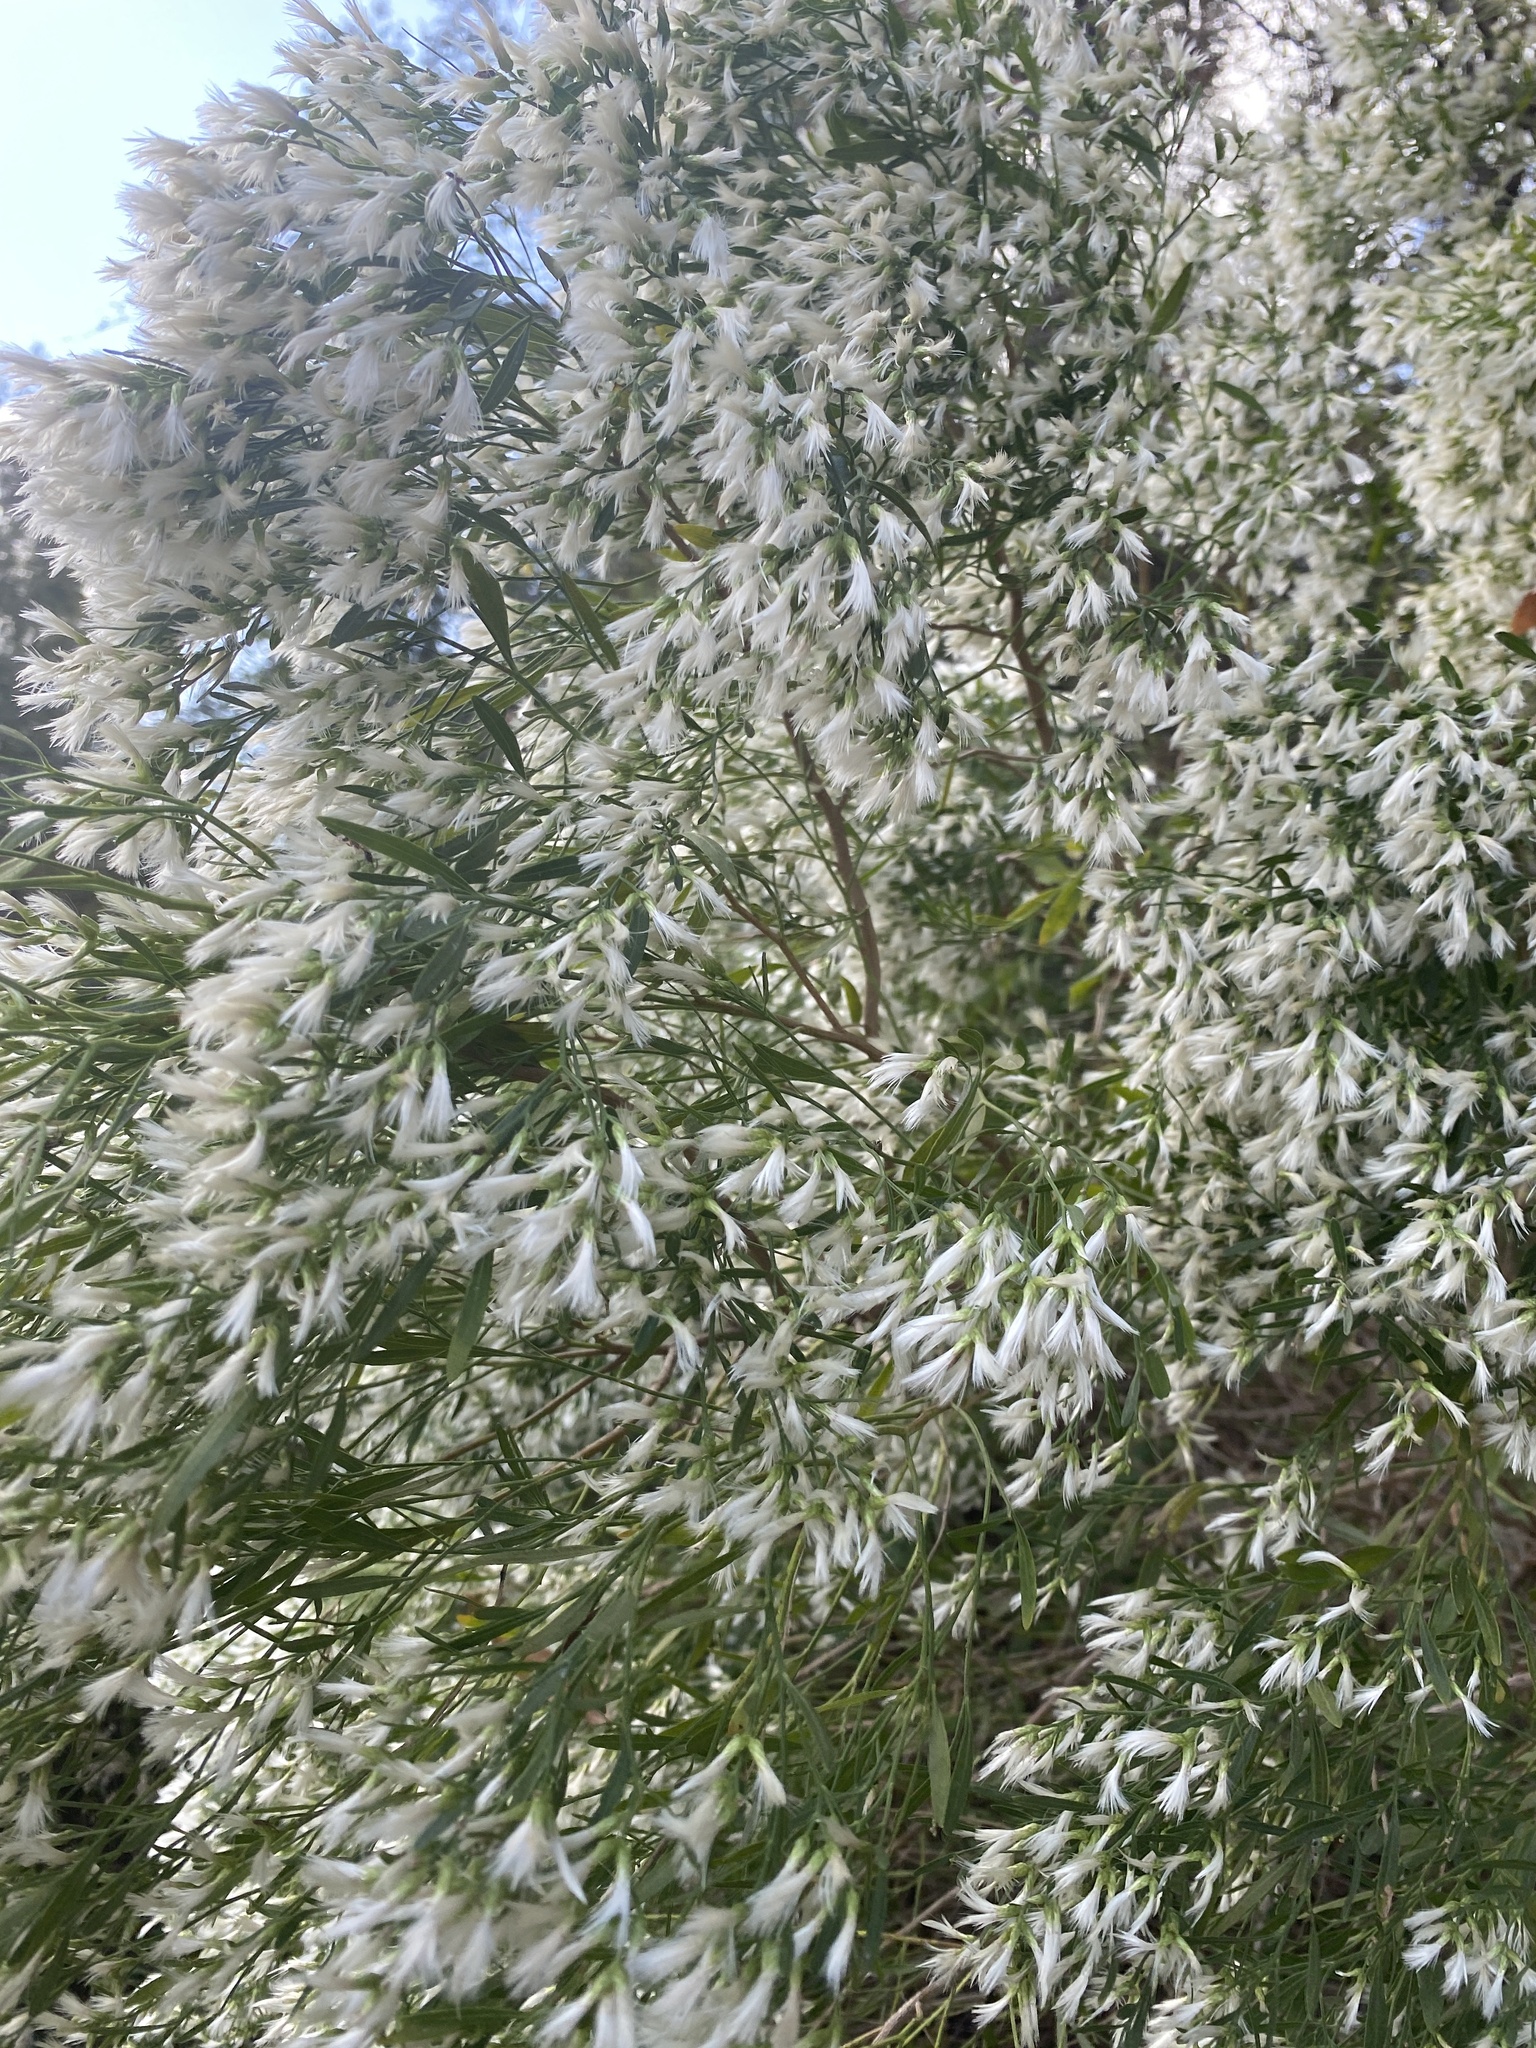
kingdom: Plantae
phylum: Tracheophyta
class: Magnoliopsida
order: Asterales
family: Asteraceae
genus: Baccharis
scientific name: Baccharis halimifolia
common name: Eastern baccharis
